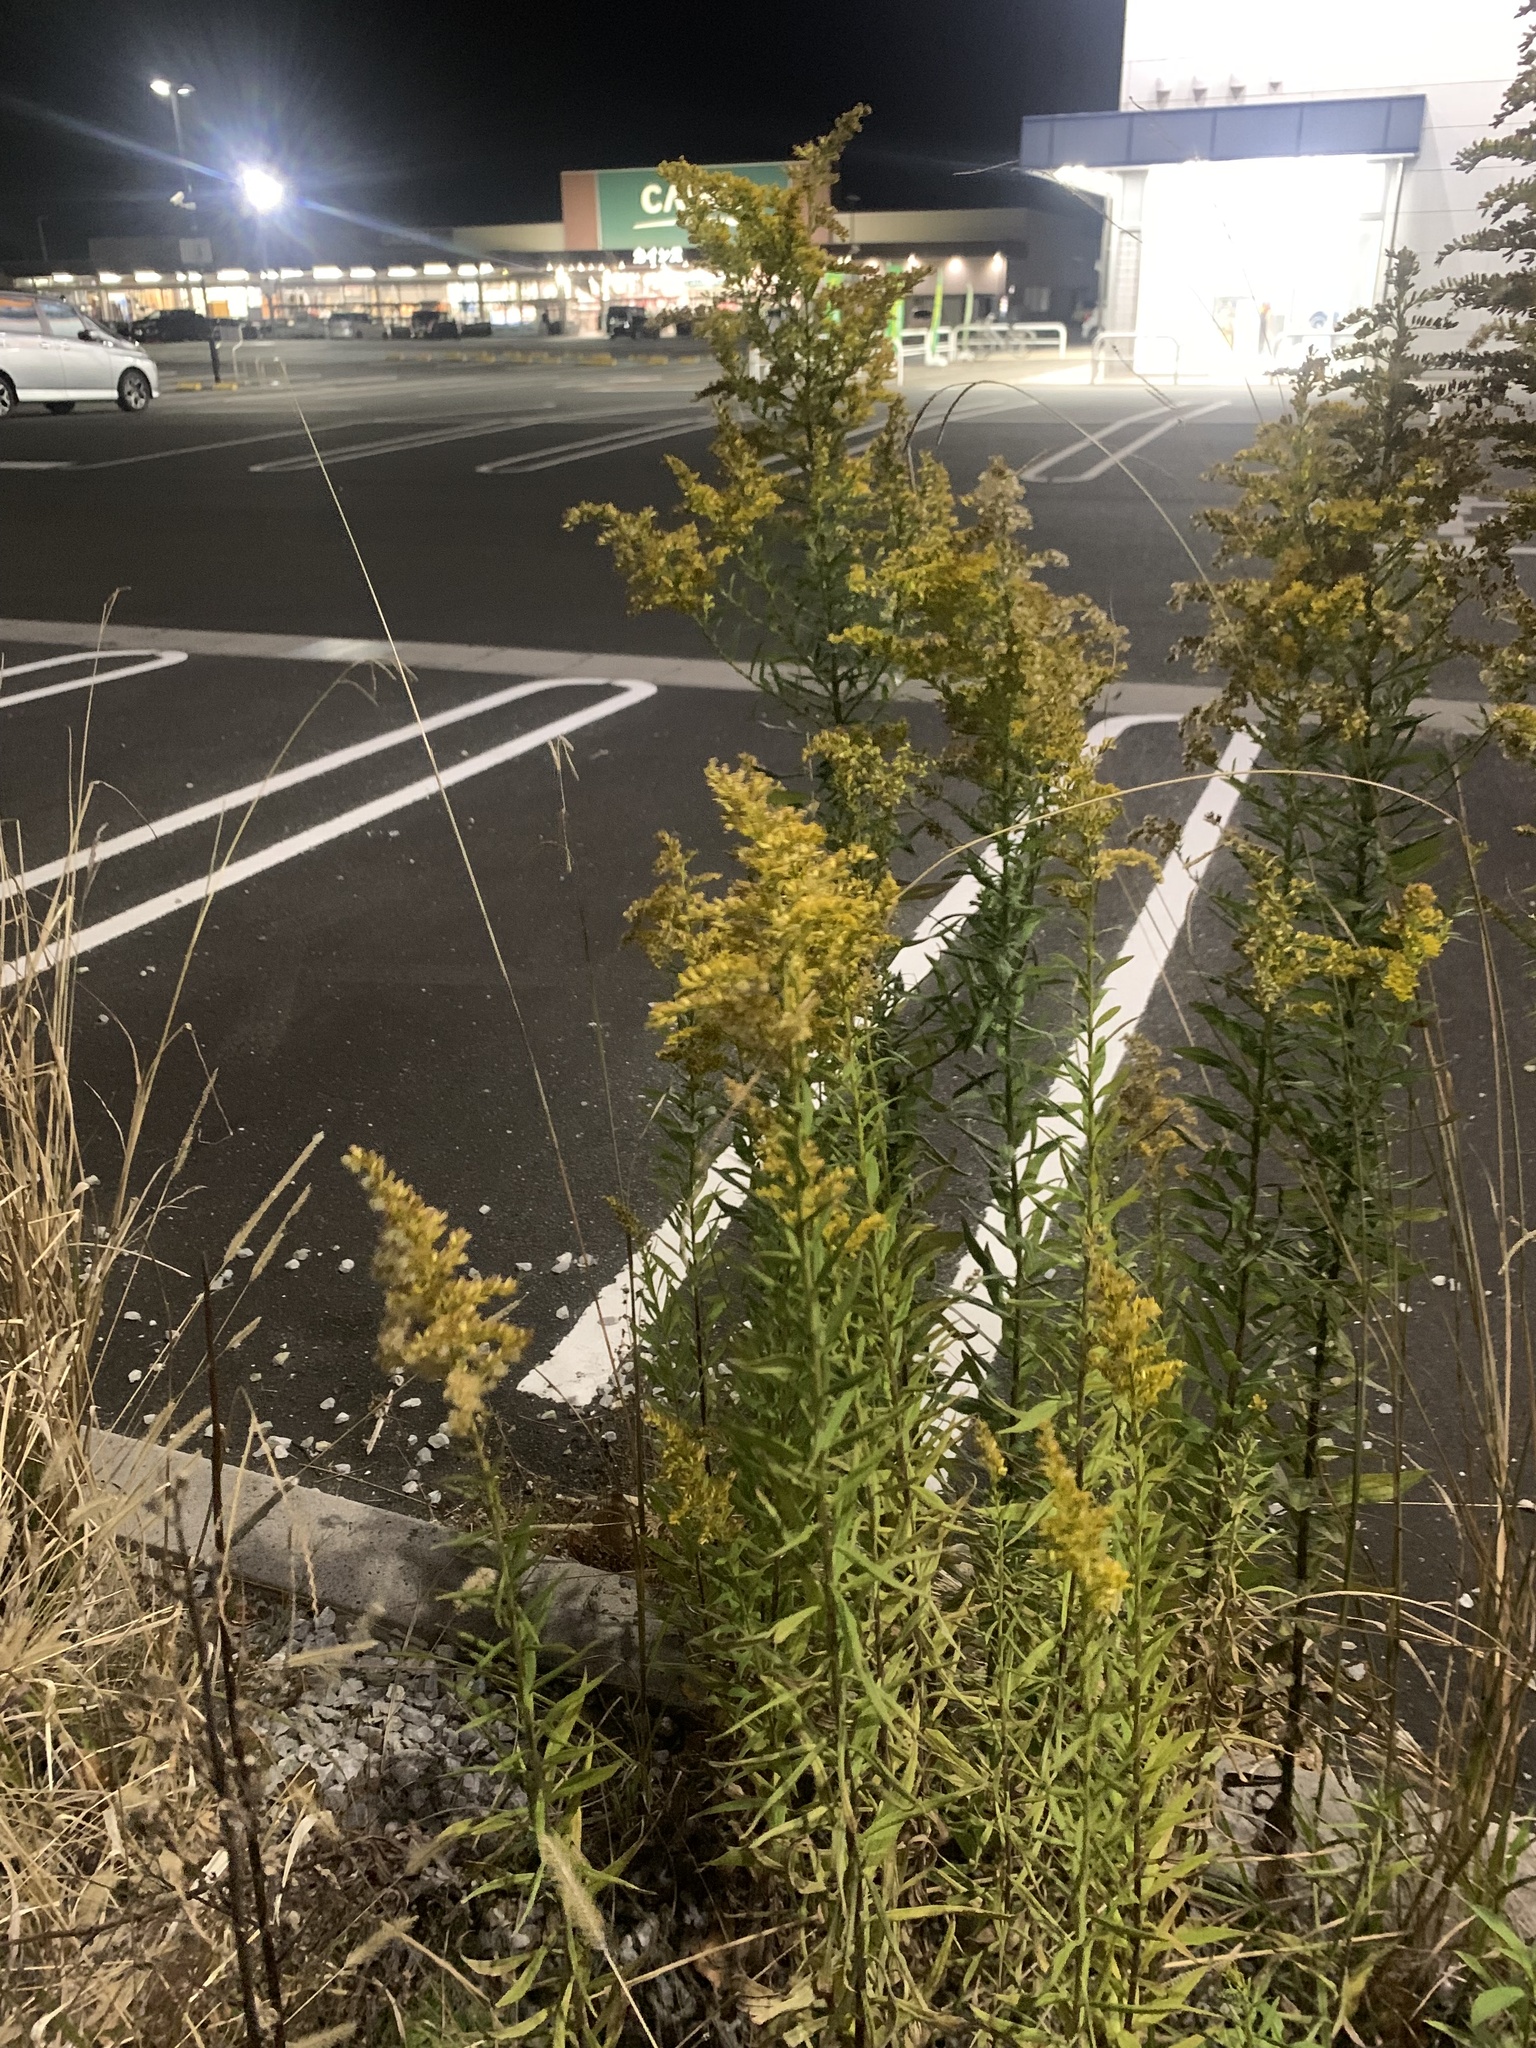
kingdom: Plantae
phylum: Tracheophyta
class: Magnoliopsida
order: Asterales
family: Asteraceae
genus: Solidago
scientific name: Solidago altissima
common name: Late goldenrod
